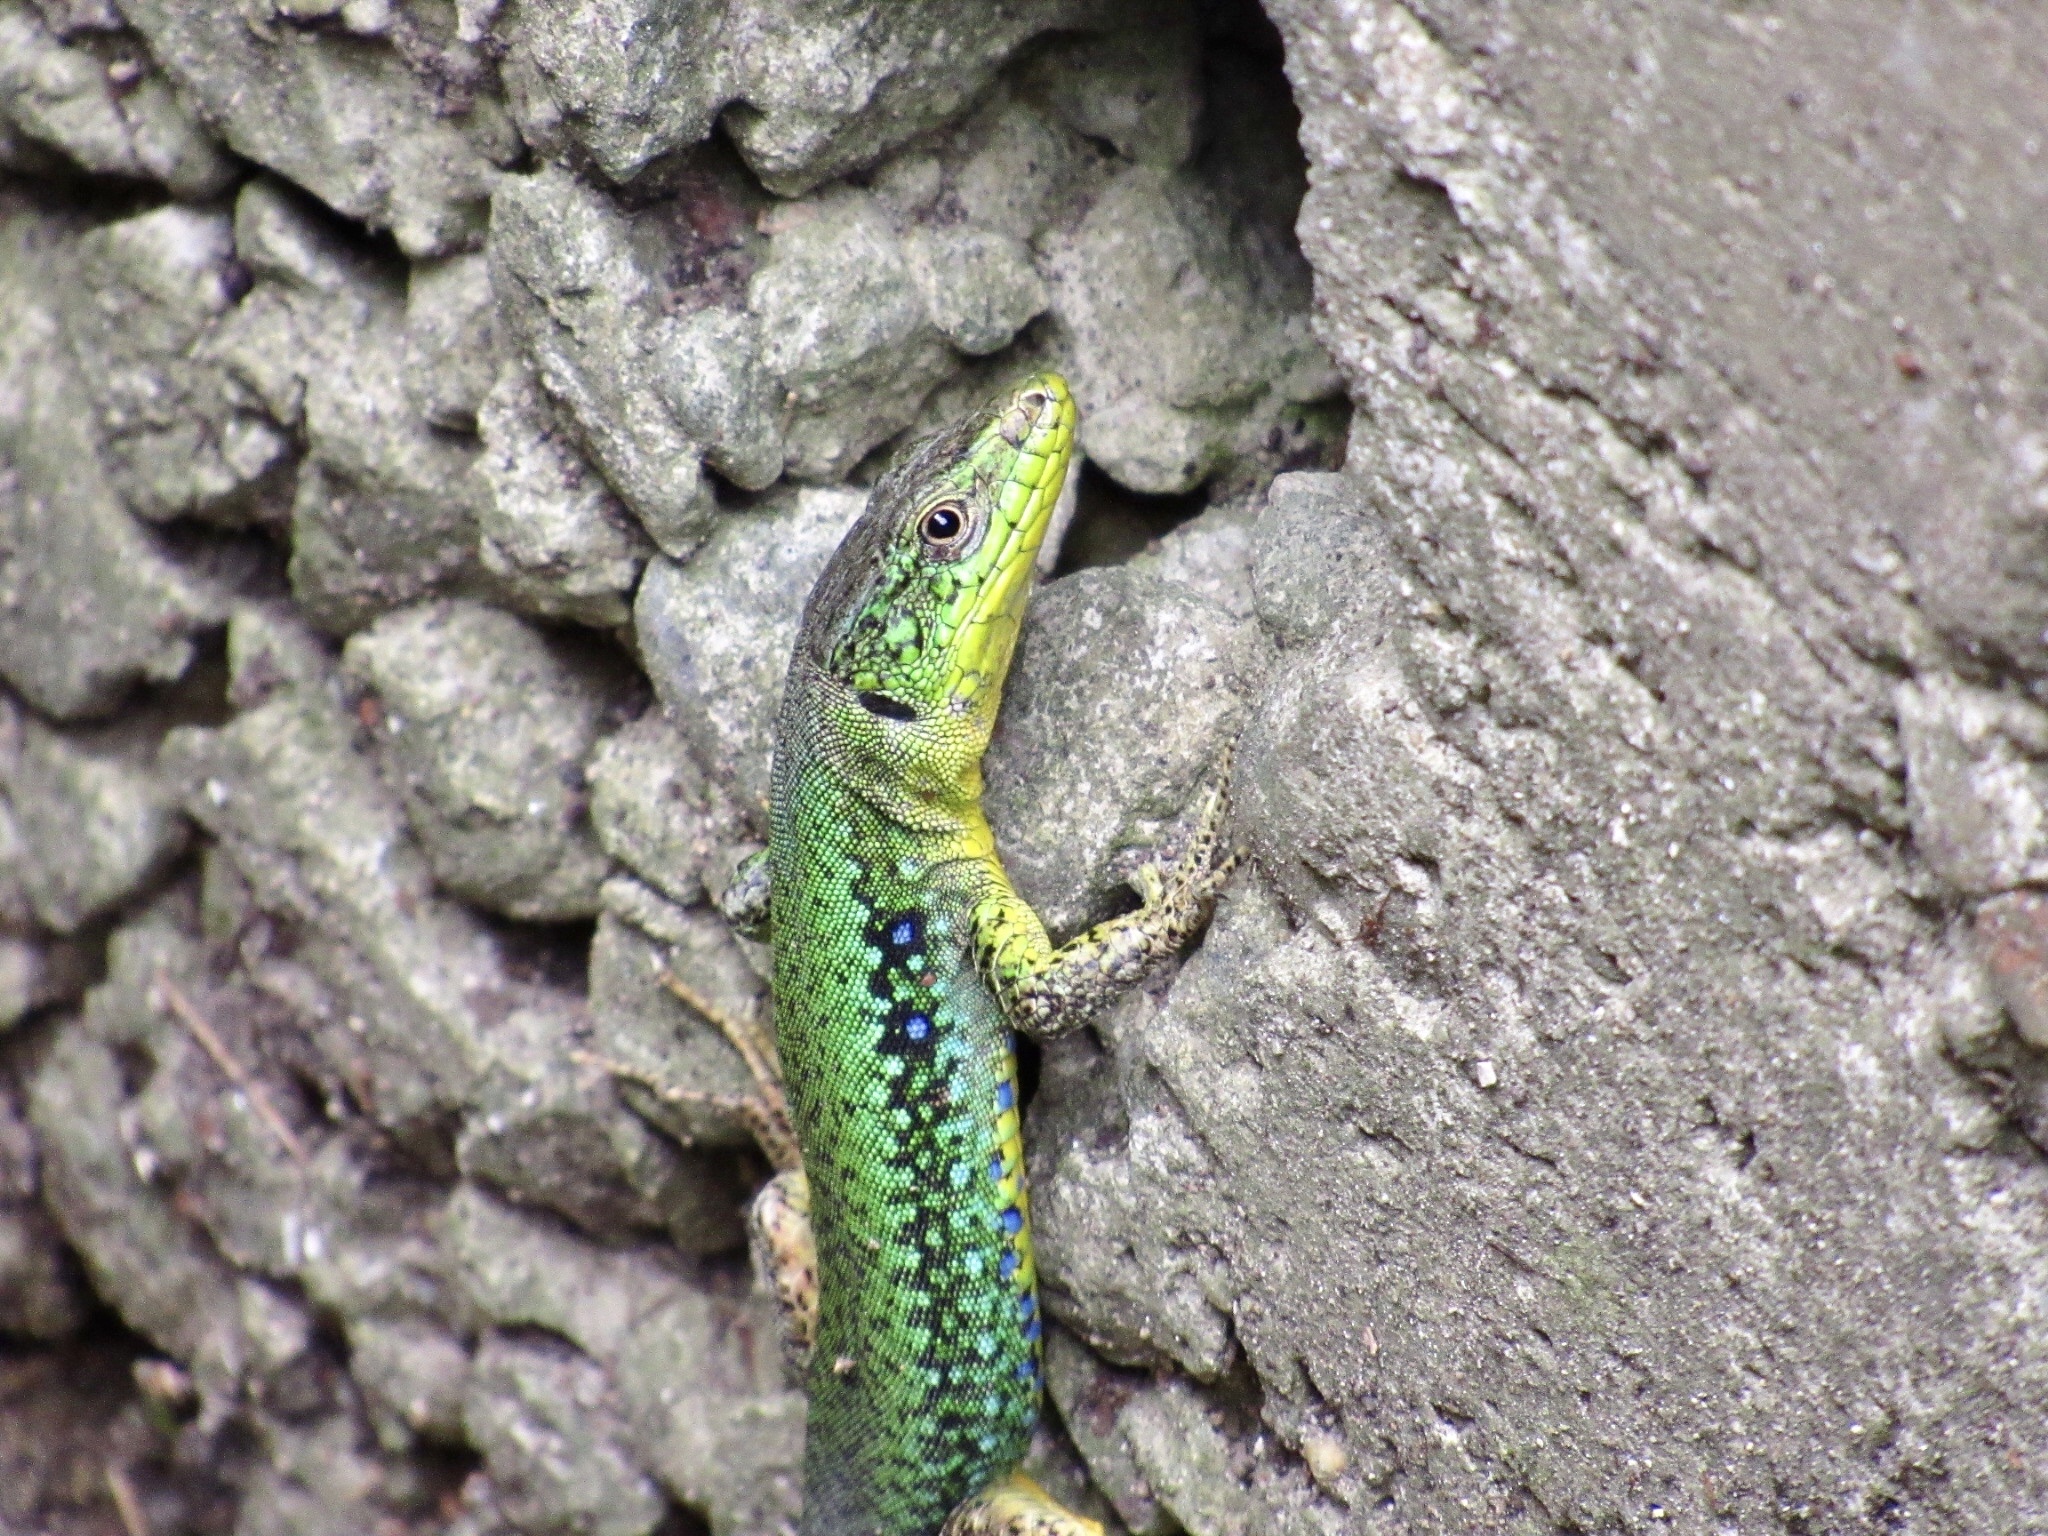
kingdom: Animalia
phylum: Chordata
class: Squamata
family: Lacertidae
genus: Darevskia
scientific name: Darevskia brauneri
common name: Brauner's rock lizard
